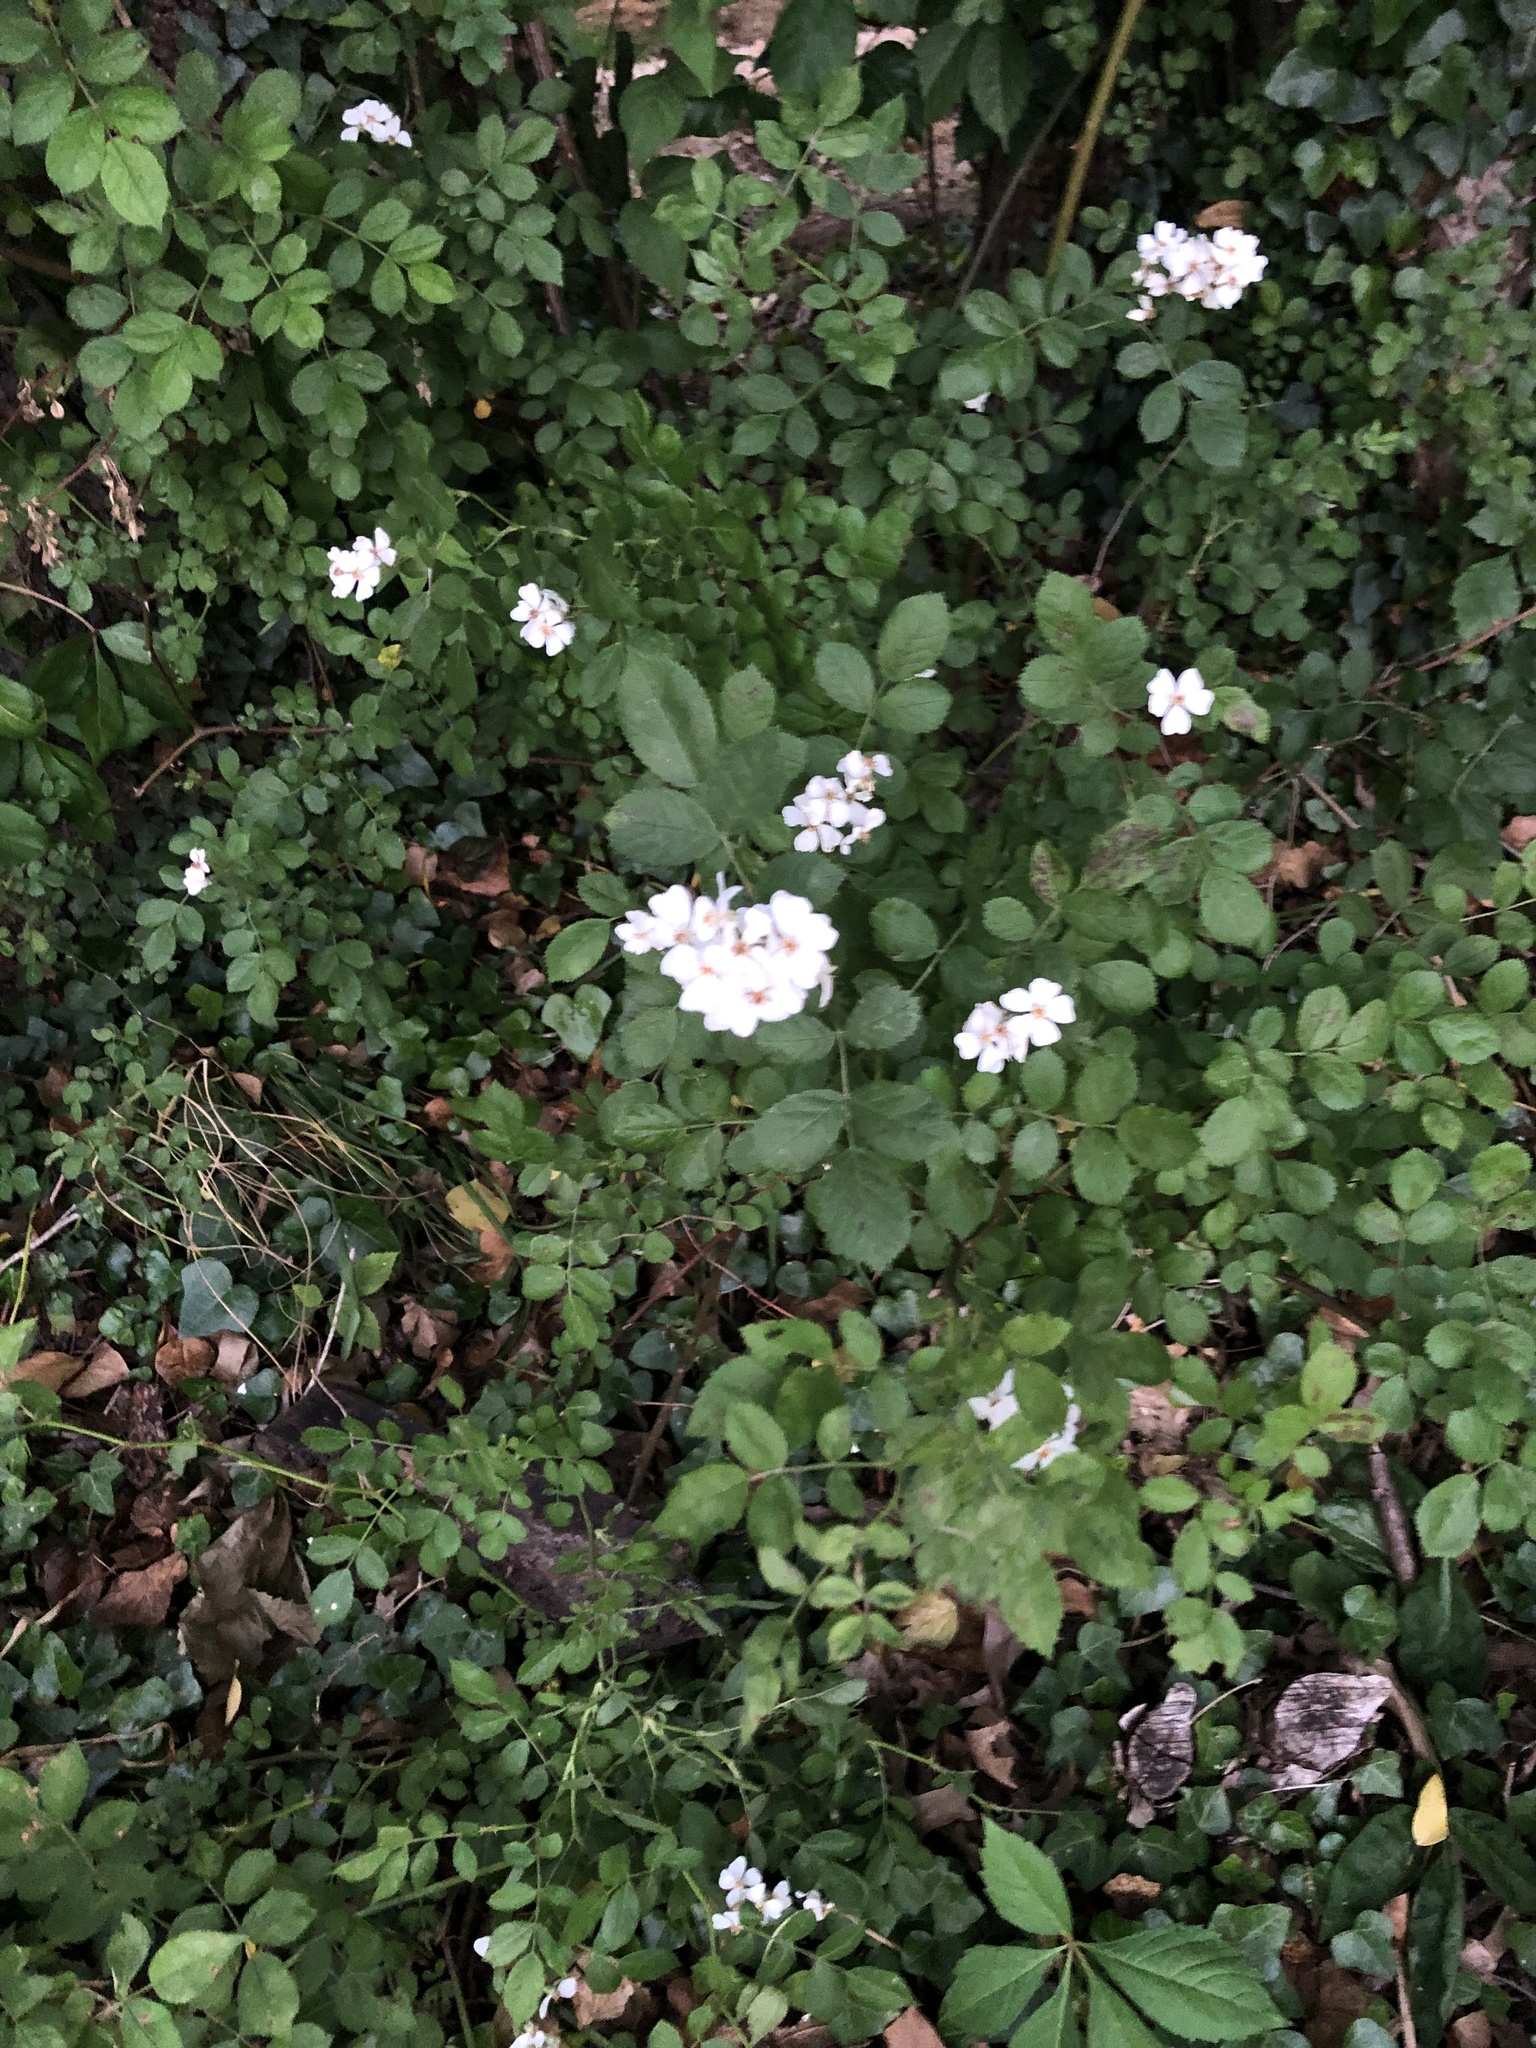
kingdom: Plantae
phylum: Tracheophyta
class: Magnoliopsida
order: Rosales
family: Rosaceae
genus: Rosa
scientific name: Rosa multiflora
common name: Multiflora rose
